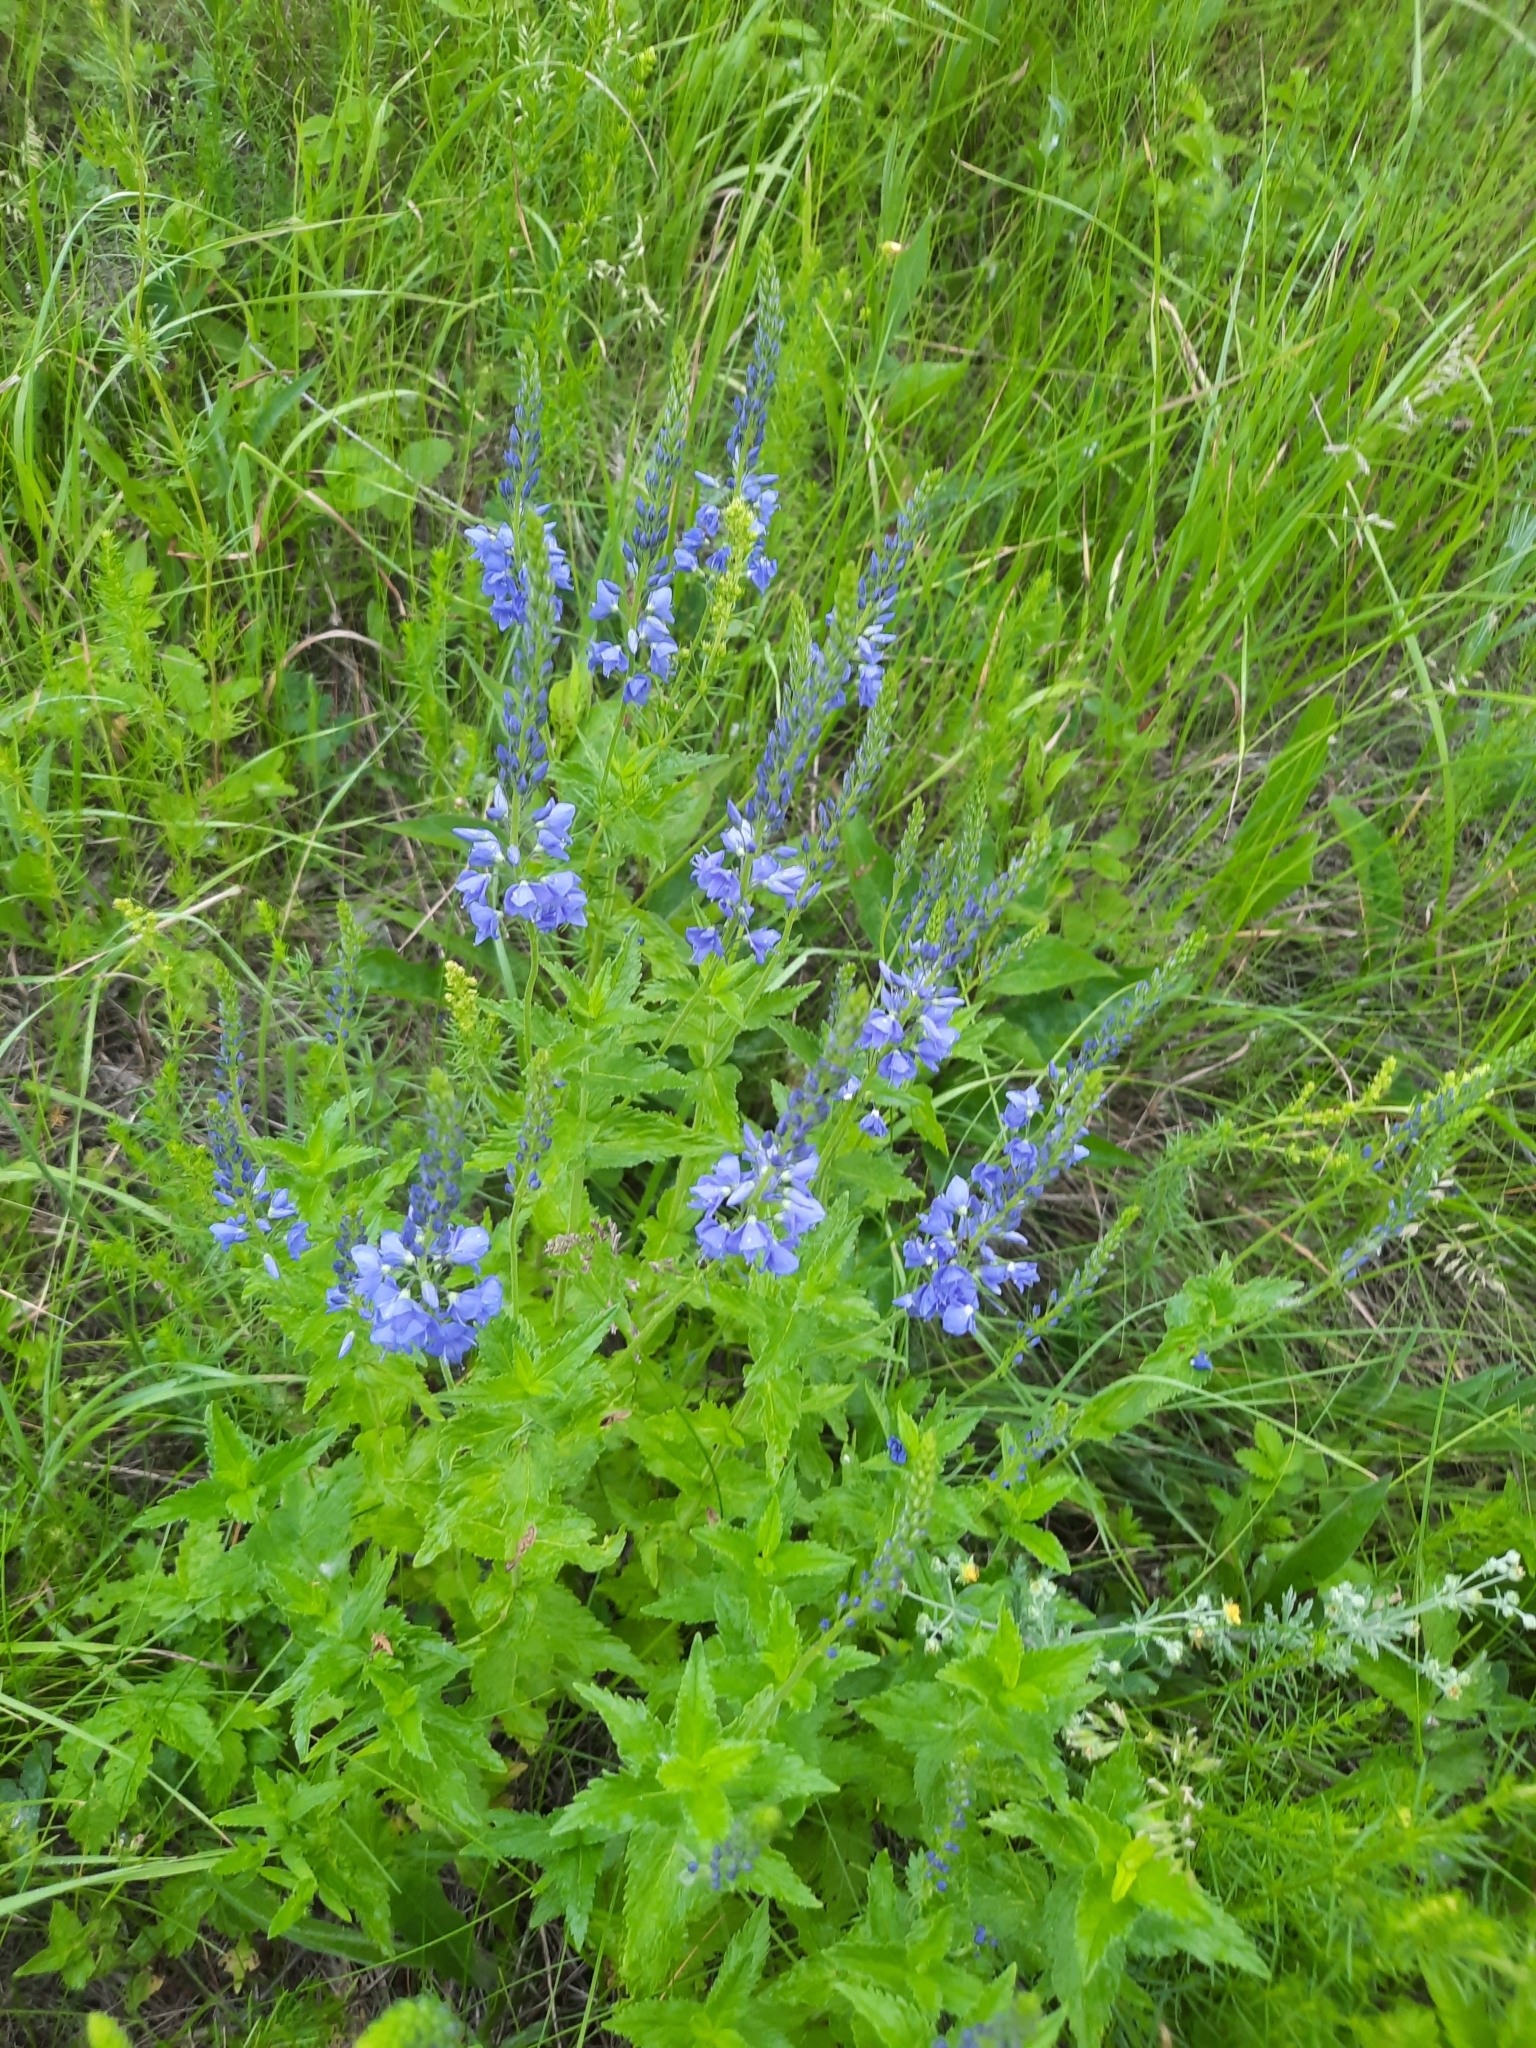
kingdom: Plantae
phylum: Tracheophyta
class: Magnoliopsida
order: Lamiales
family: Plantaginaceae
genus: Veronica
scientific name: Veronica teucrium
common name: Large speedwell
